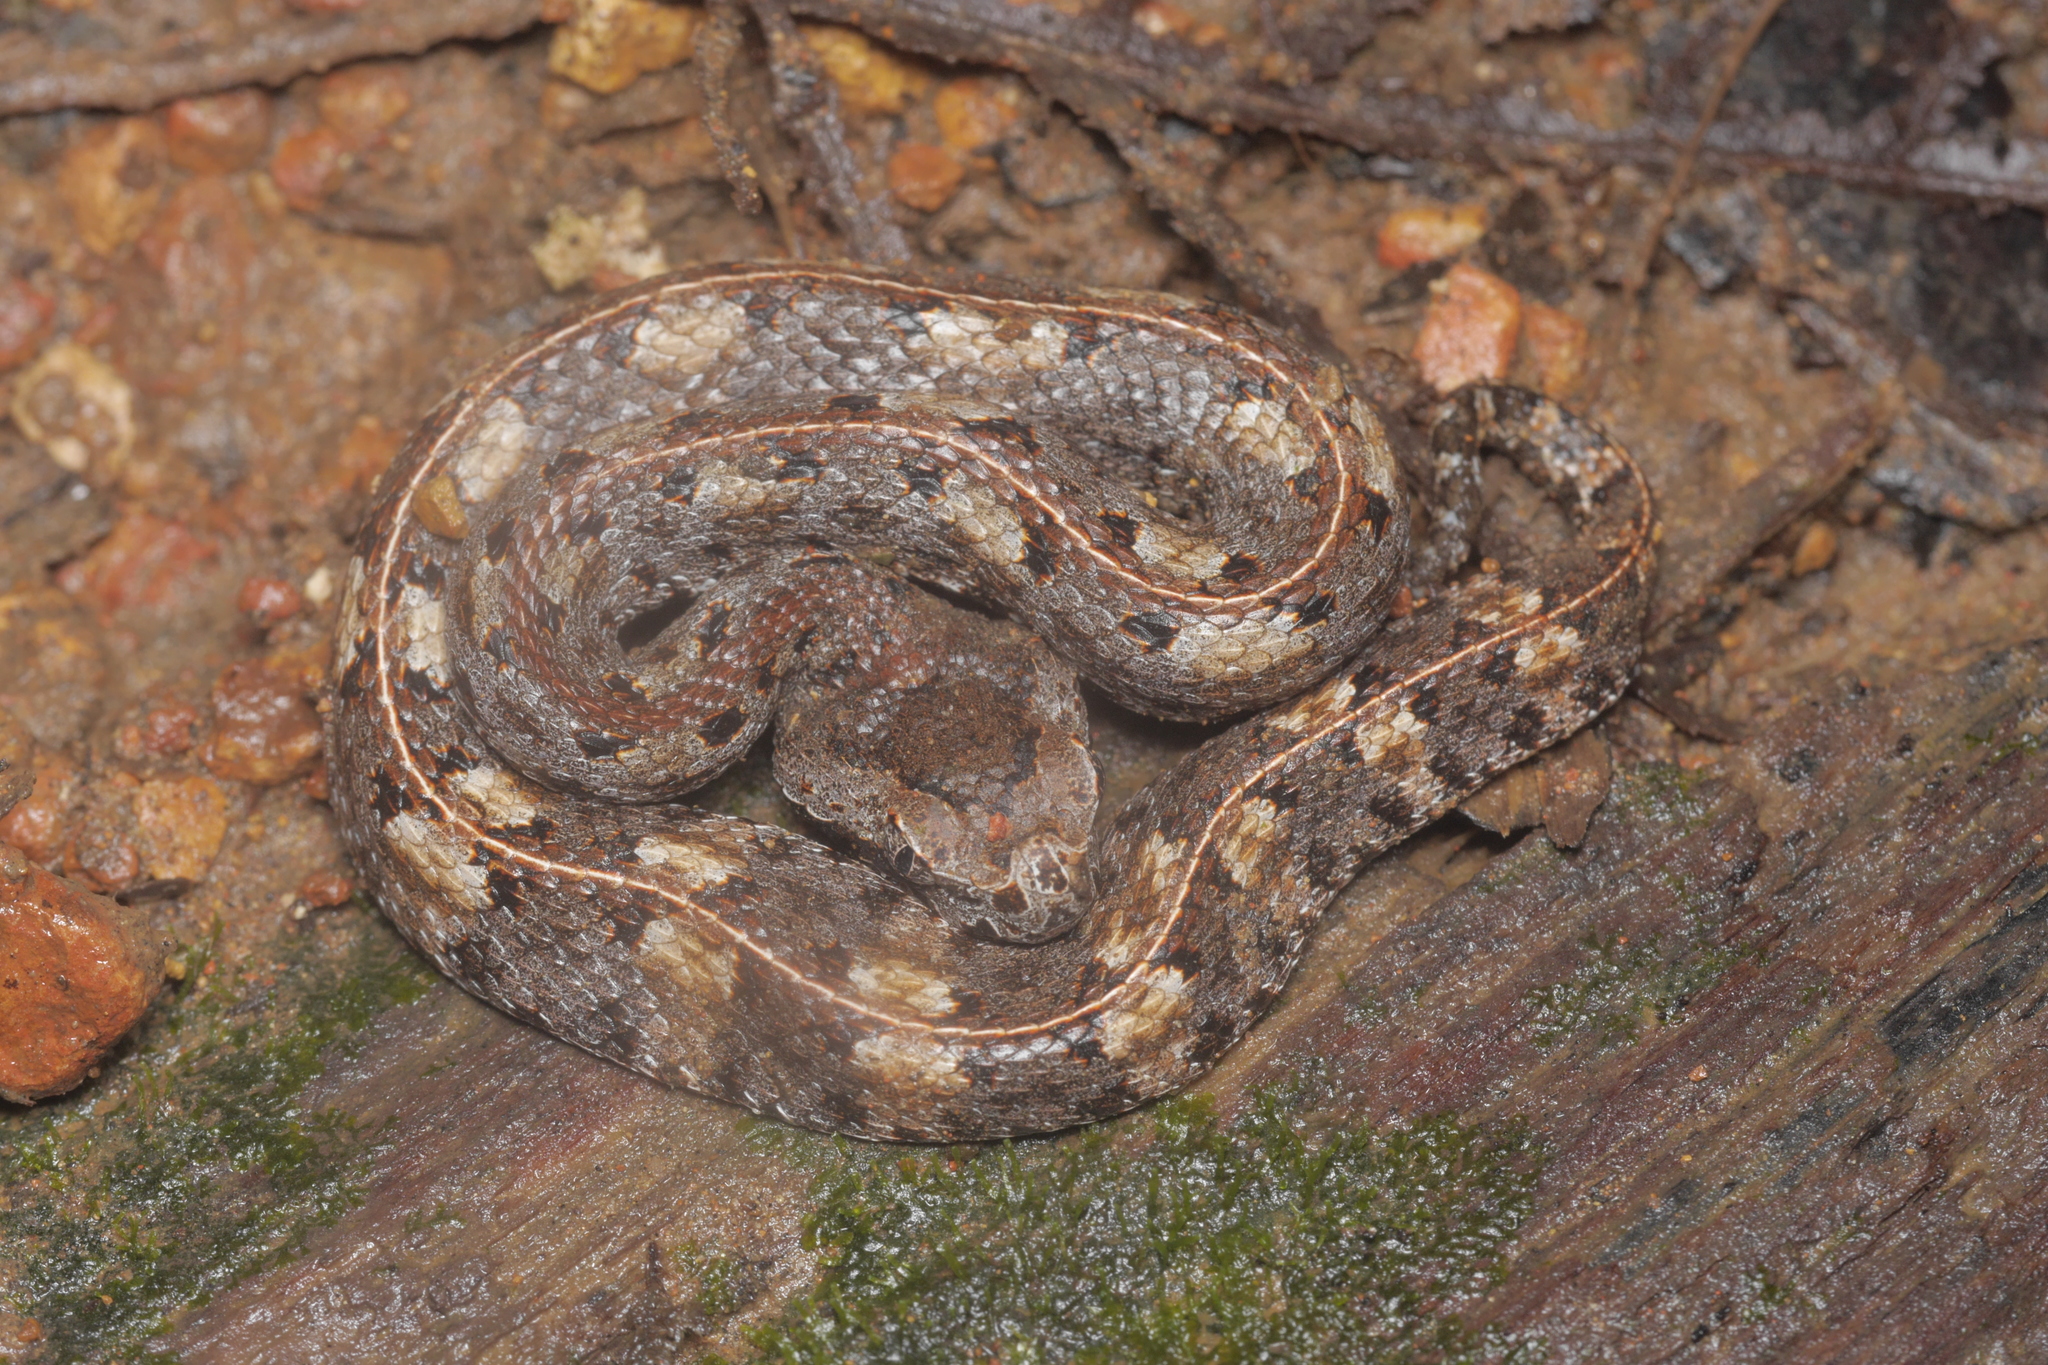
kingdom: Animalia
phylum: Chordata
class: Squamata
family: Viperidae
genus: Porthidium
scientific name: Porthidium nasutum
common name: Hognosed pit viper
